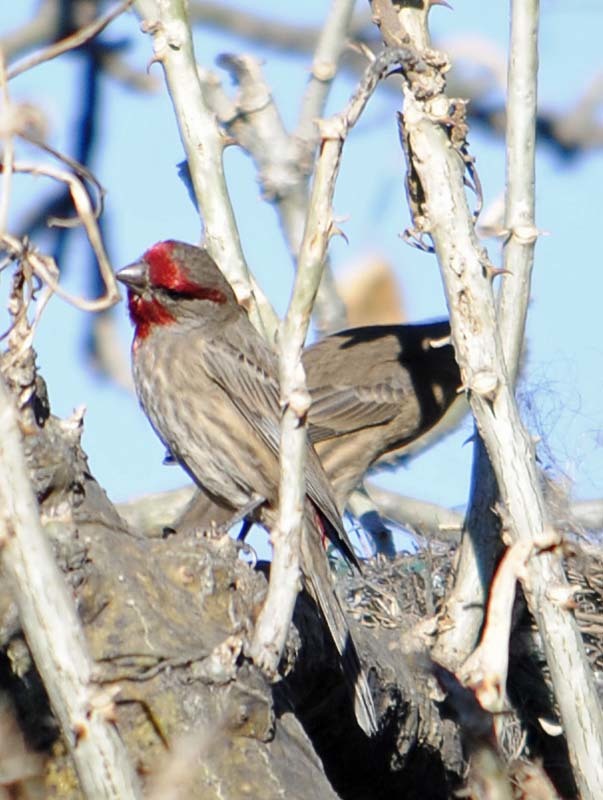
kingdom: Animalia
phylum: Chordata
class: Aves
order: Passeriformes
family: Fringillidae
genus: Haemorhous
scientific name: Haemorhous mexicanus
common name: House finch
